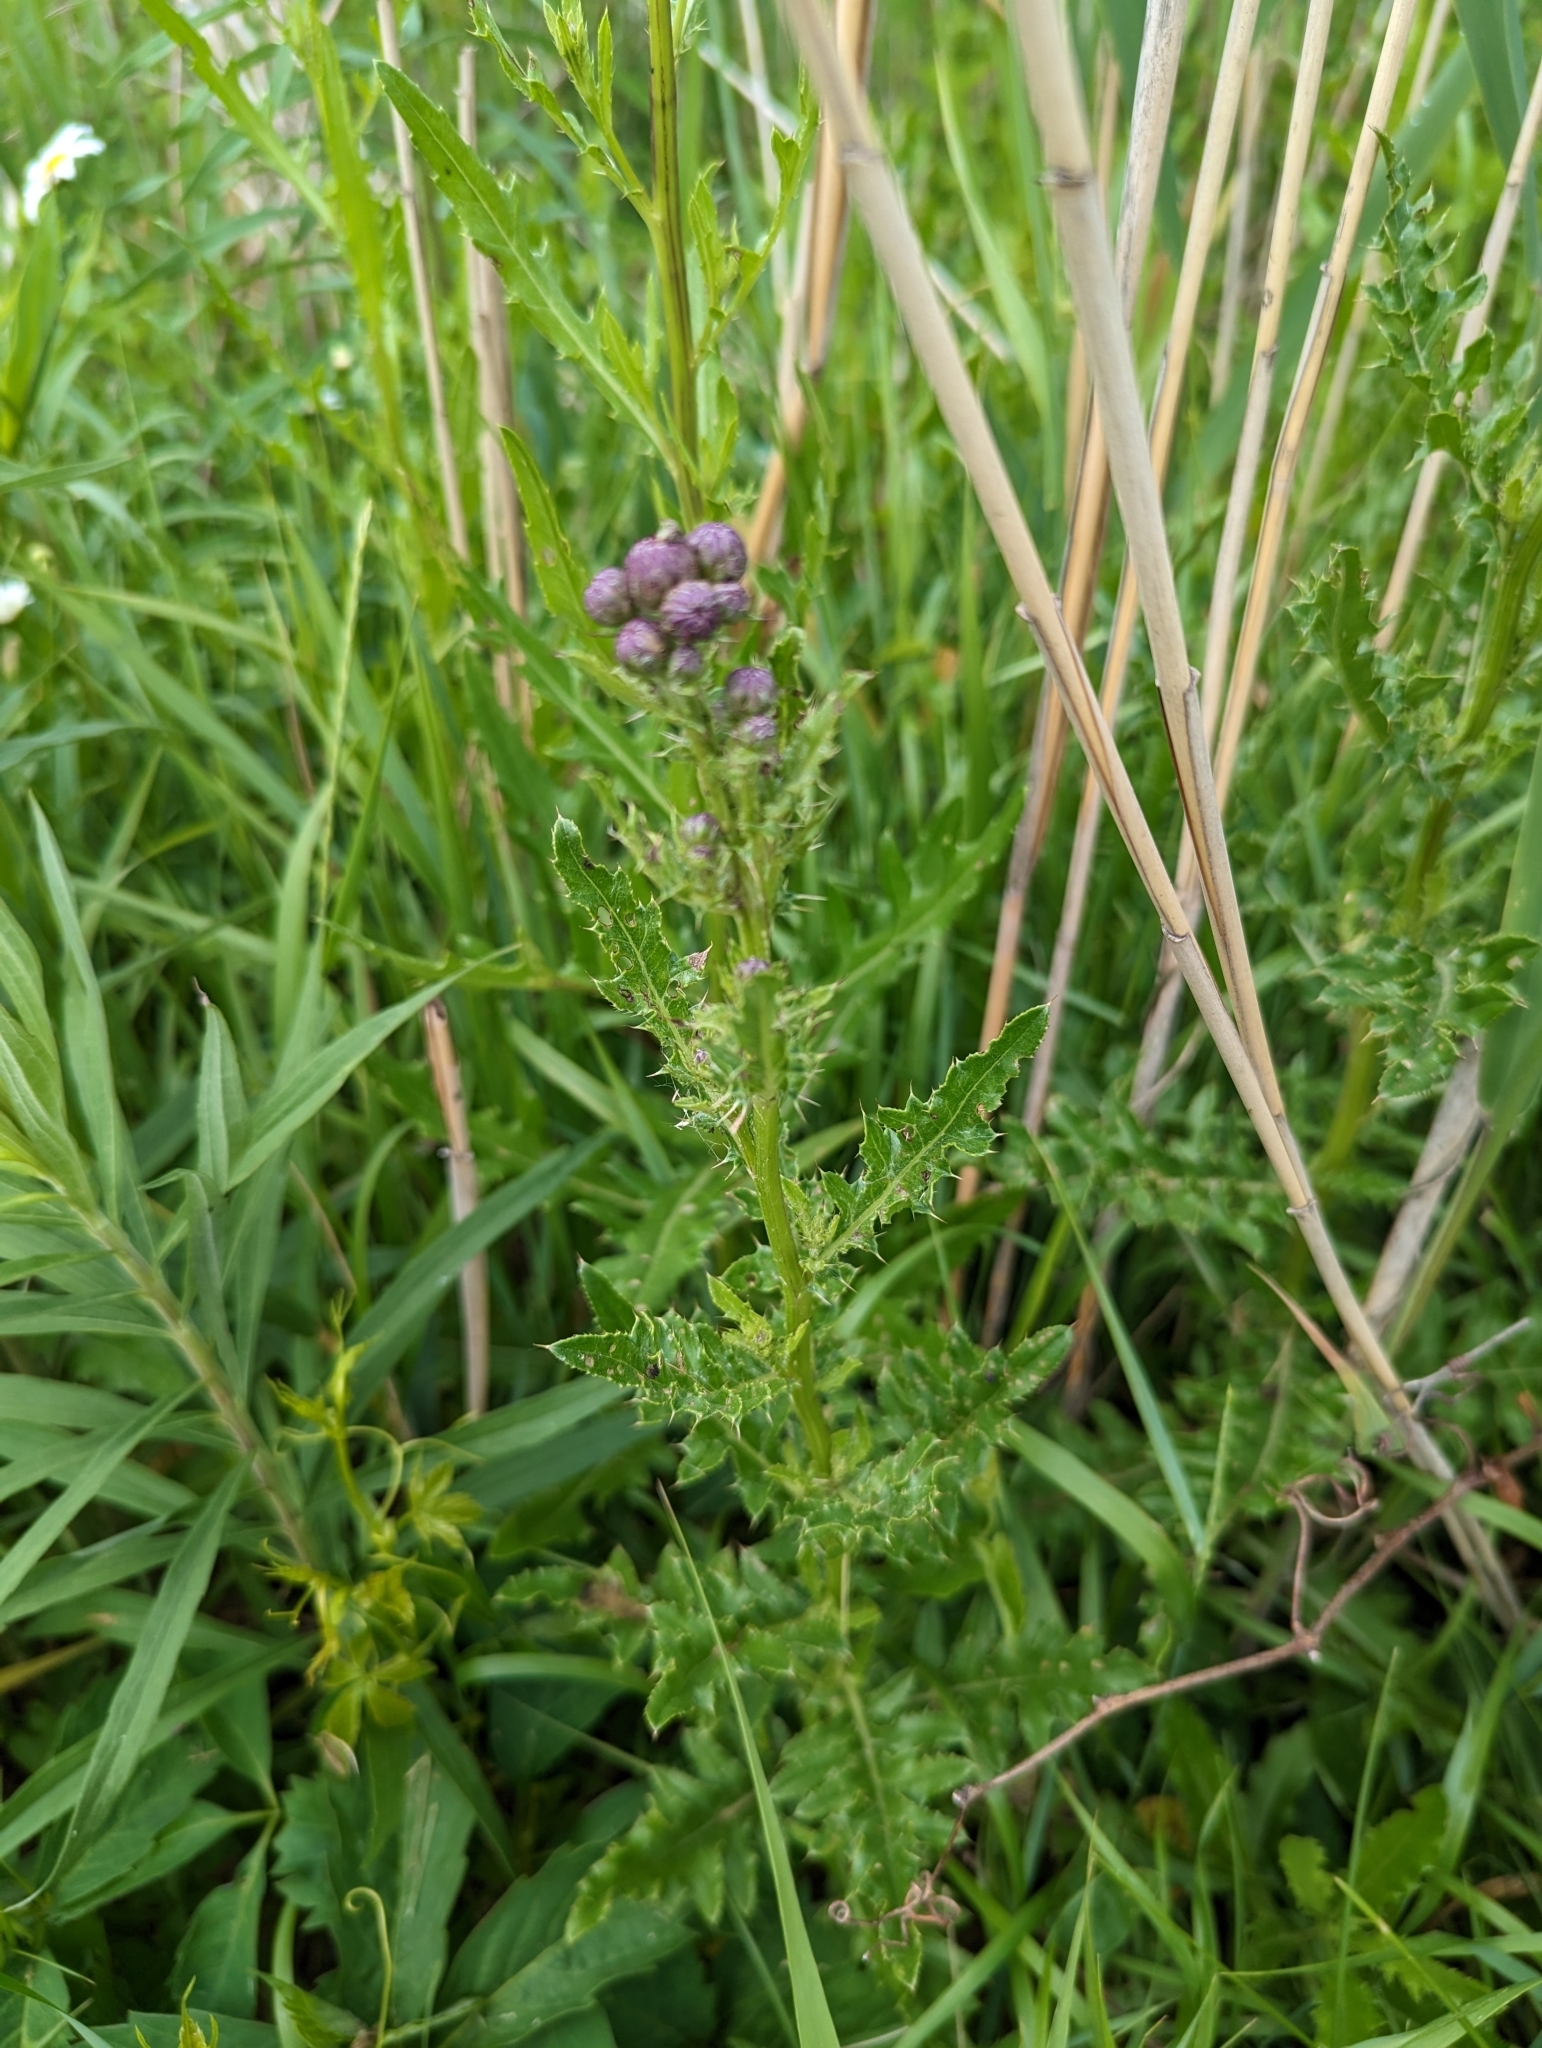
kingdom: Plantae
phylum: Tracheophyta
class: Magnoliopsida
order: Asterales
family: Asteraceae
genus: Cirsium
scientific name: Cirsium arvense
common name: Creeping thistle
